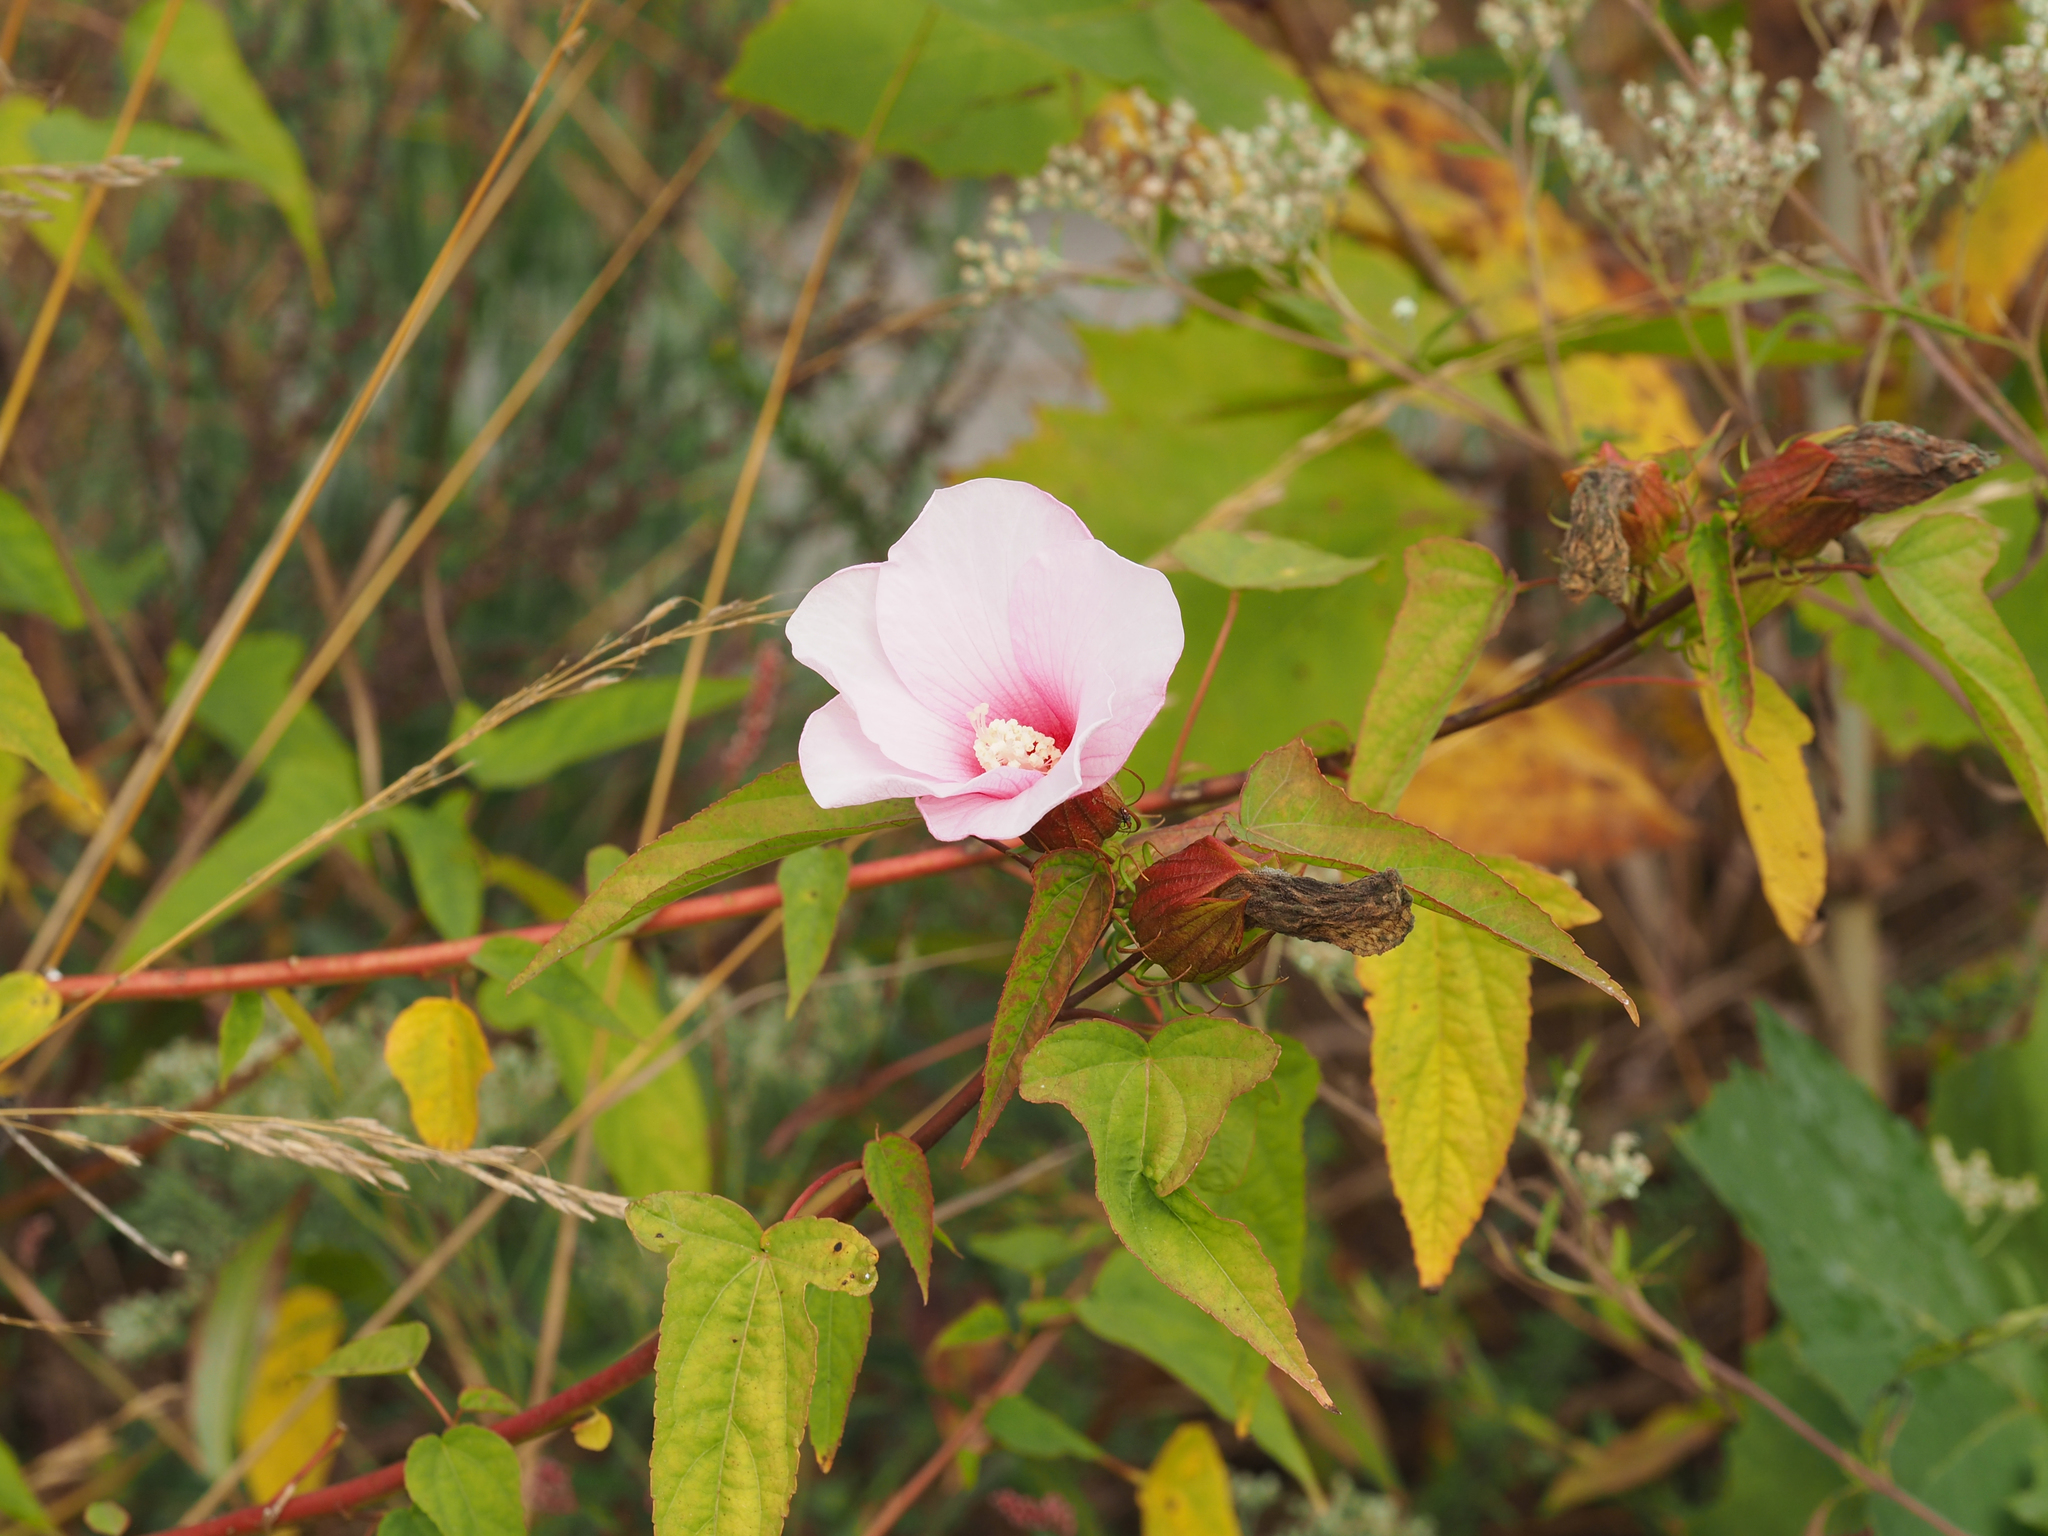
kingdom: Plantae
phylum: Tracheophyta
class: Magnoliopsida
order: Malvales
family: Malvaceae
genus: Hibiscus
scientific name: Hibiscus laevis
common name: Scarlet rose-mallow
